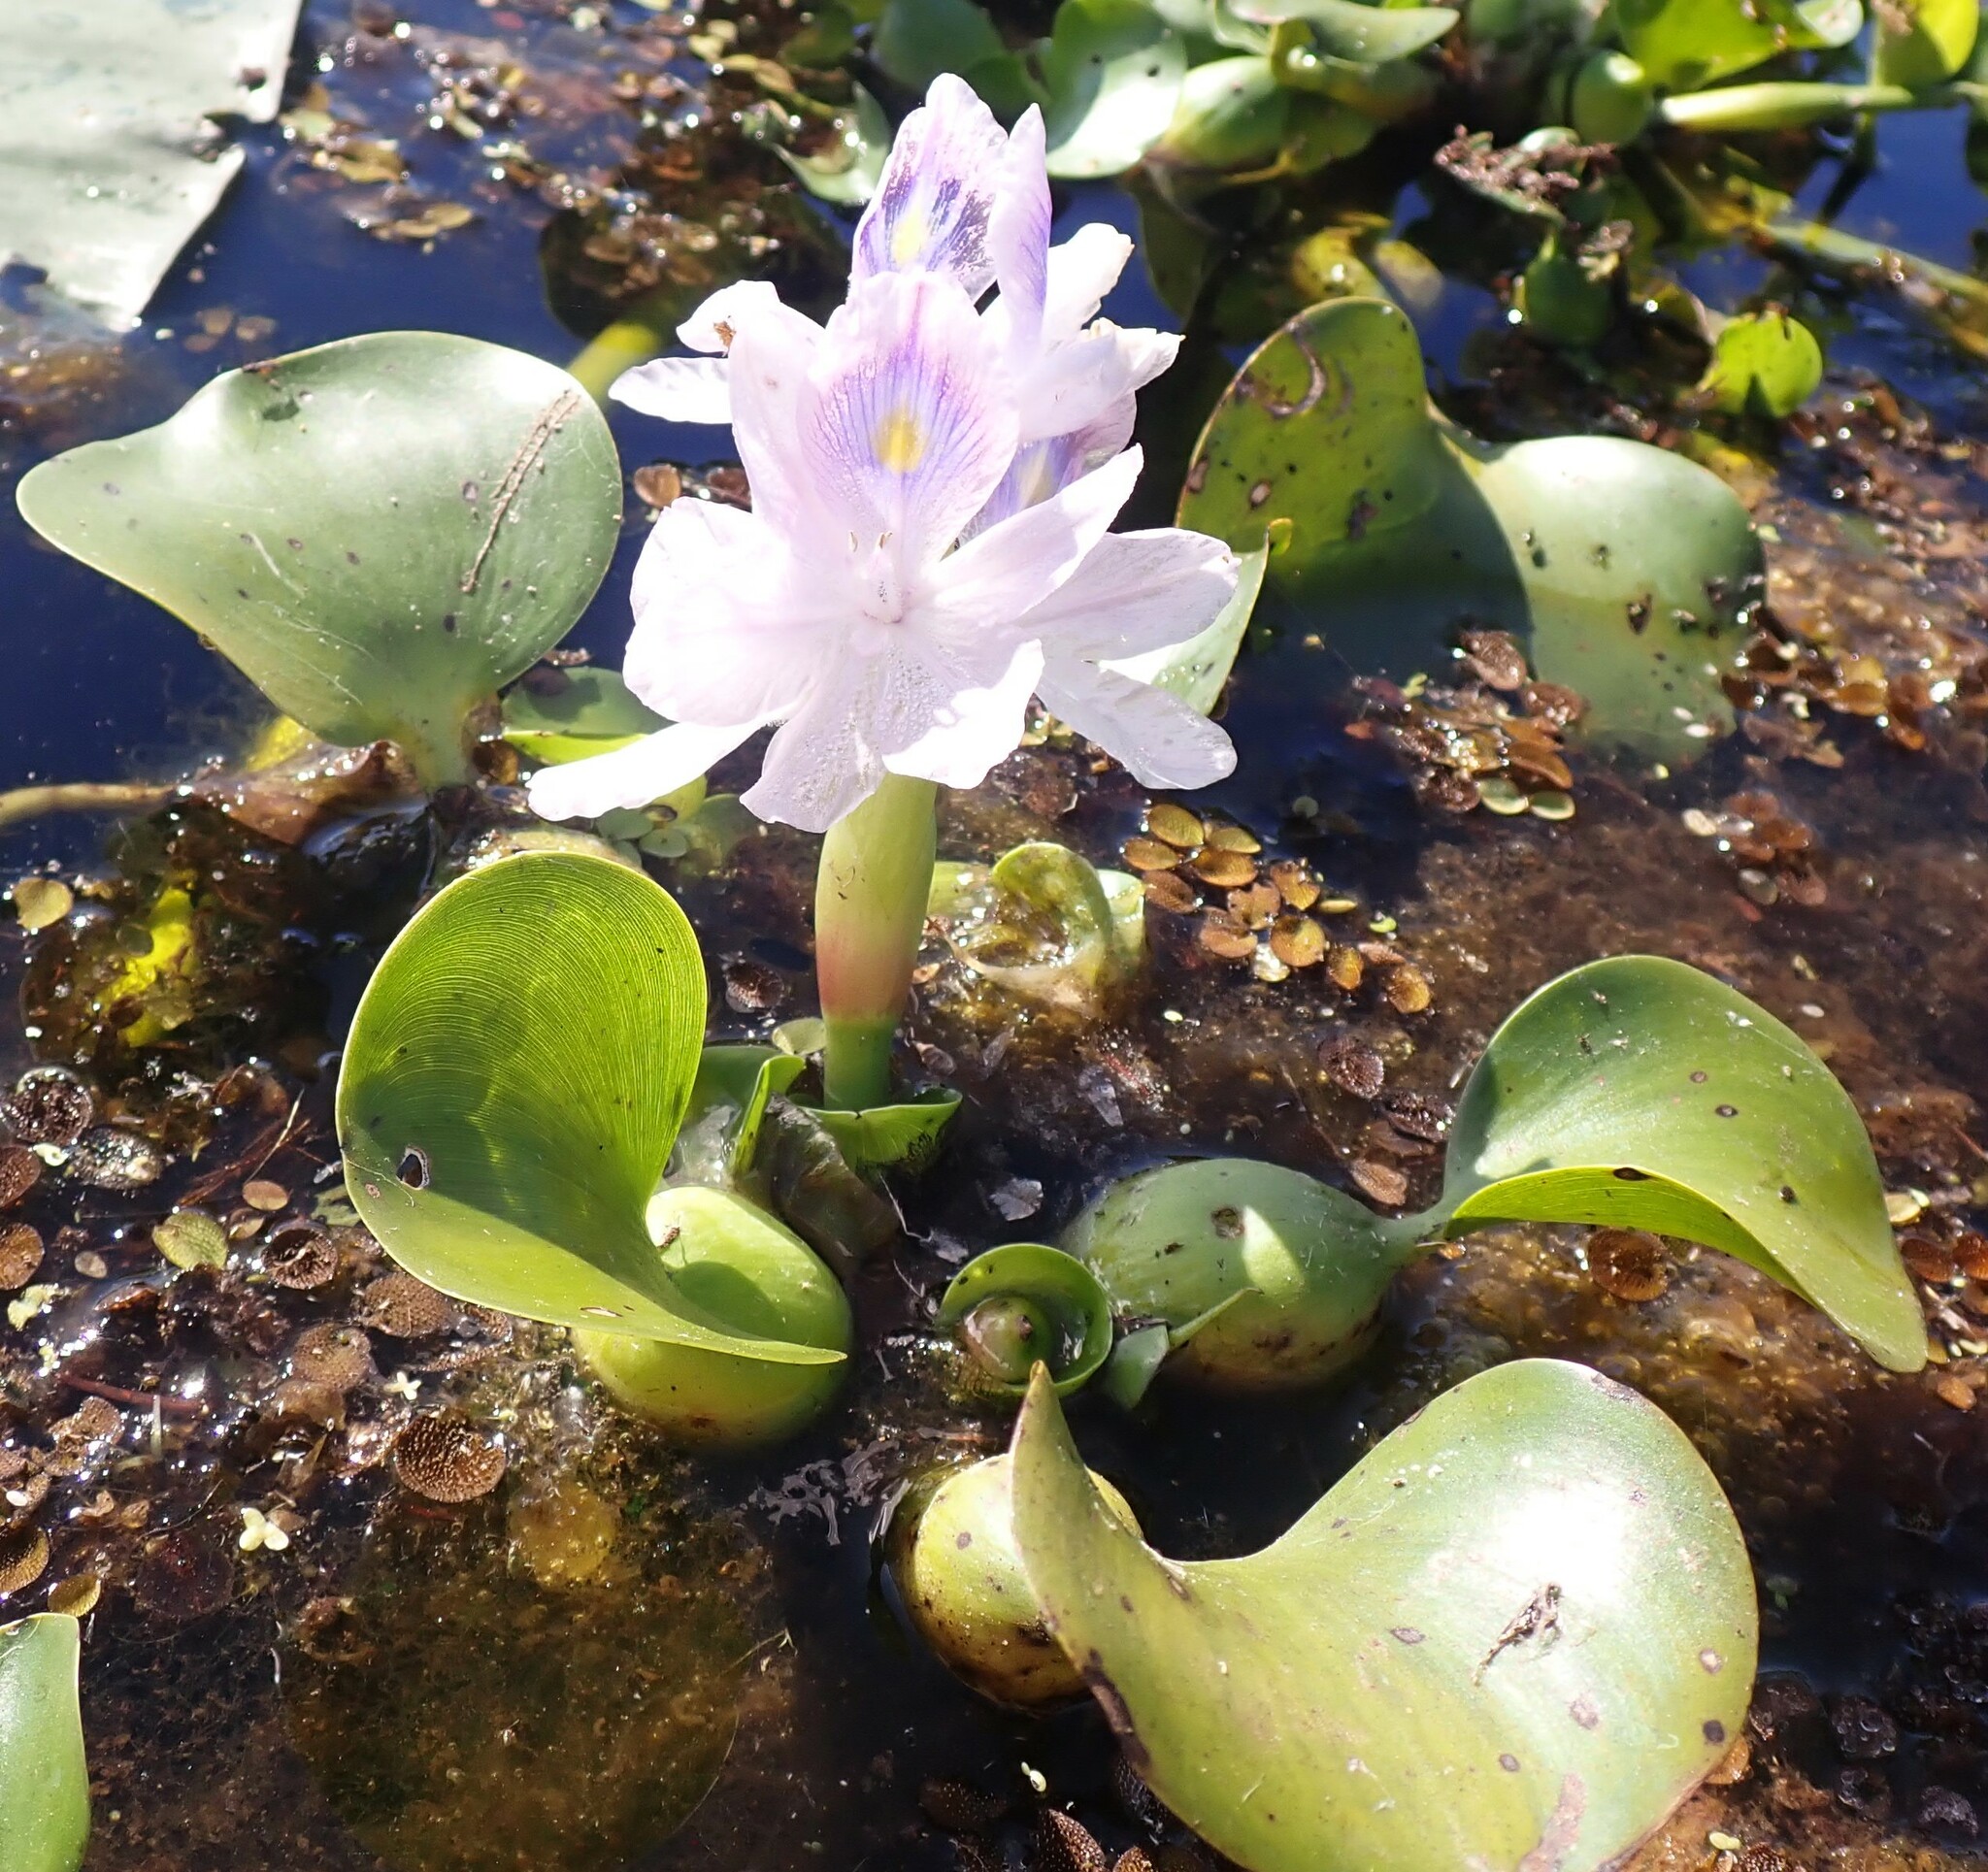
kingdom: Plantae
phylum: Tracheophyta
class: Liliopsida
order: Commelinales
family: Pontederiaceae
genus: Pontederia
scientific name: Pontederia crassipes
